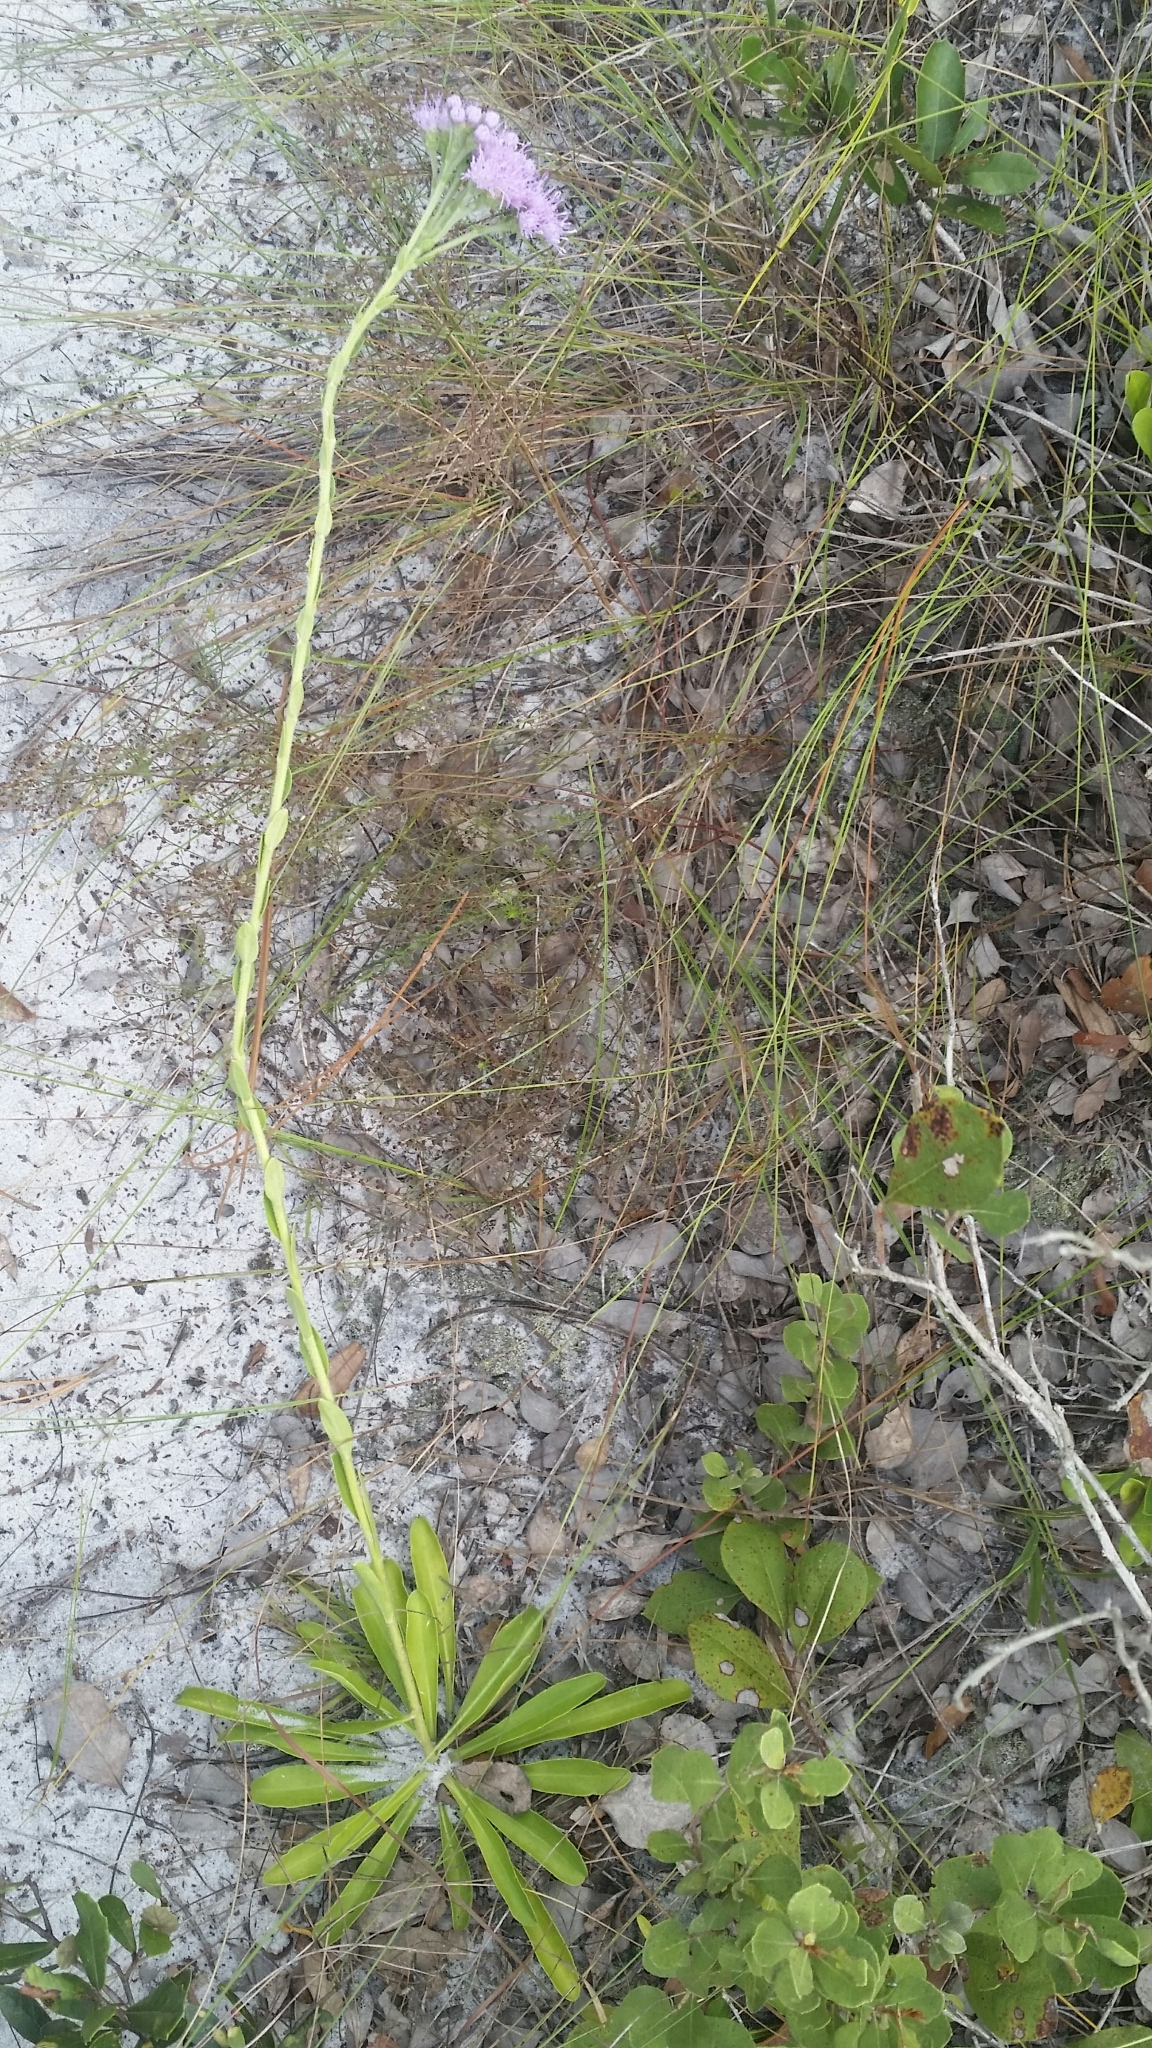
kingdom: Plantae
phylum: Tracheophyta
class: Magnoliopsida
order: Asterales
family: Asteraceae
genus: Carphephorus
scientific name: Carphephorus corymbosus
